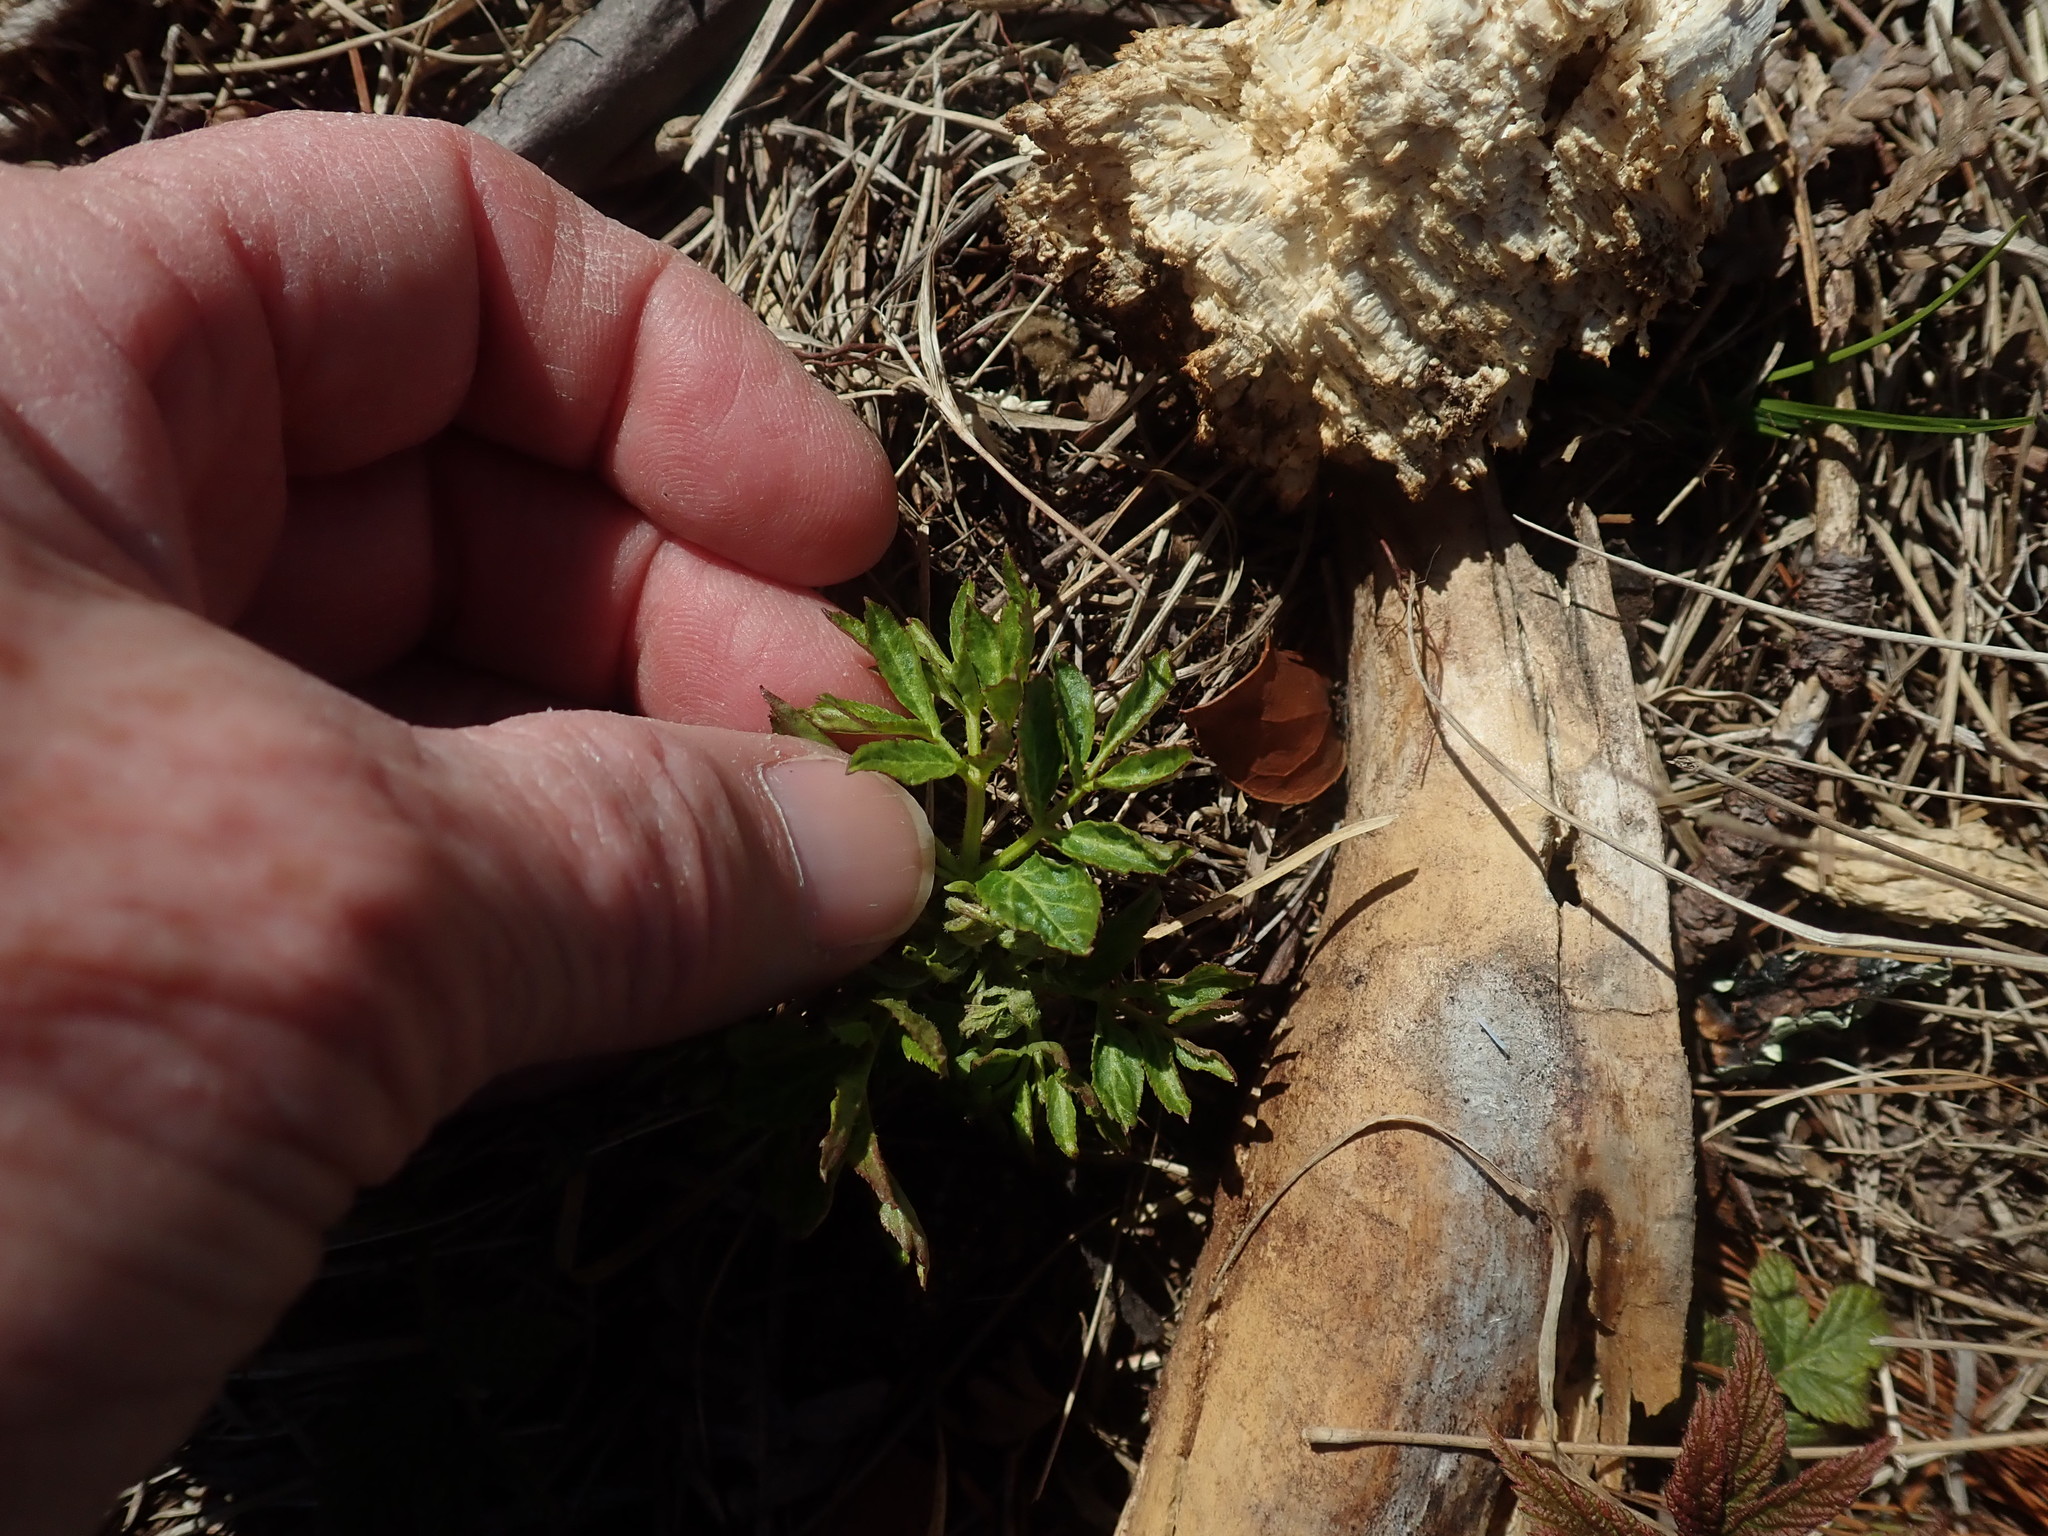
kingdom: Plantae
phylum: Tracheophyta
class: Magnoliopsida
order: Apiales
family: Araliaceae
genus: Aralia
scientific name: Aralia hispida
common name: Bristly sarsaparilla
